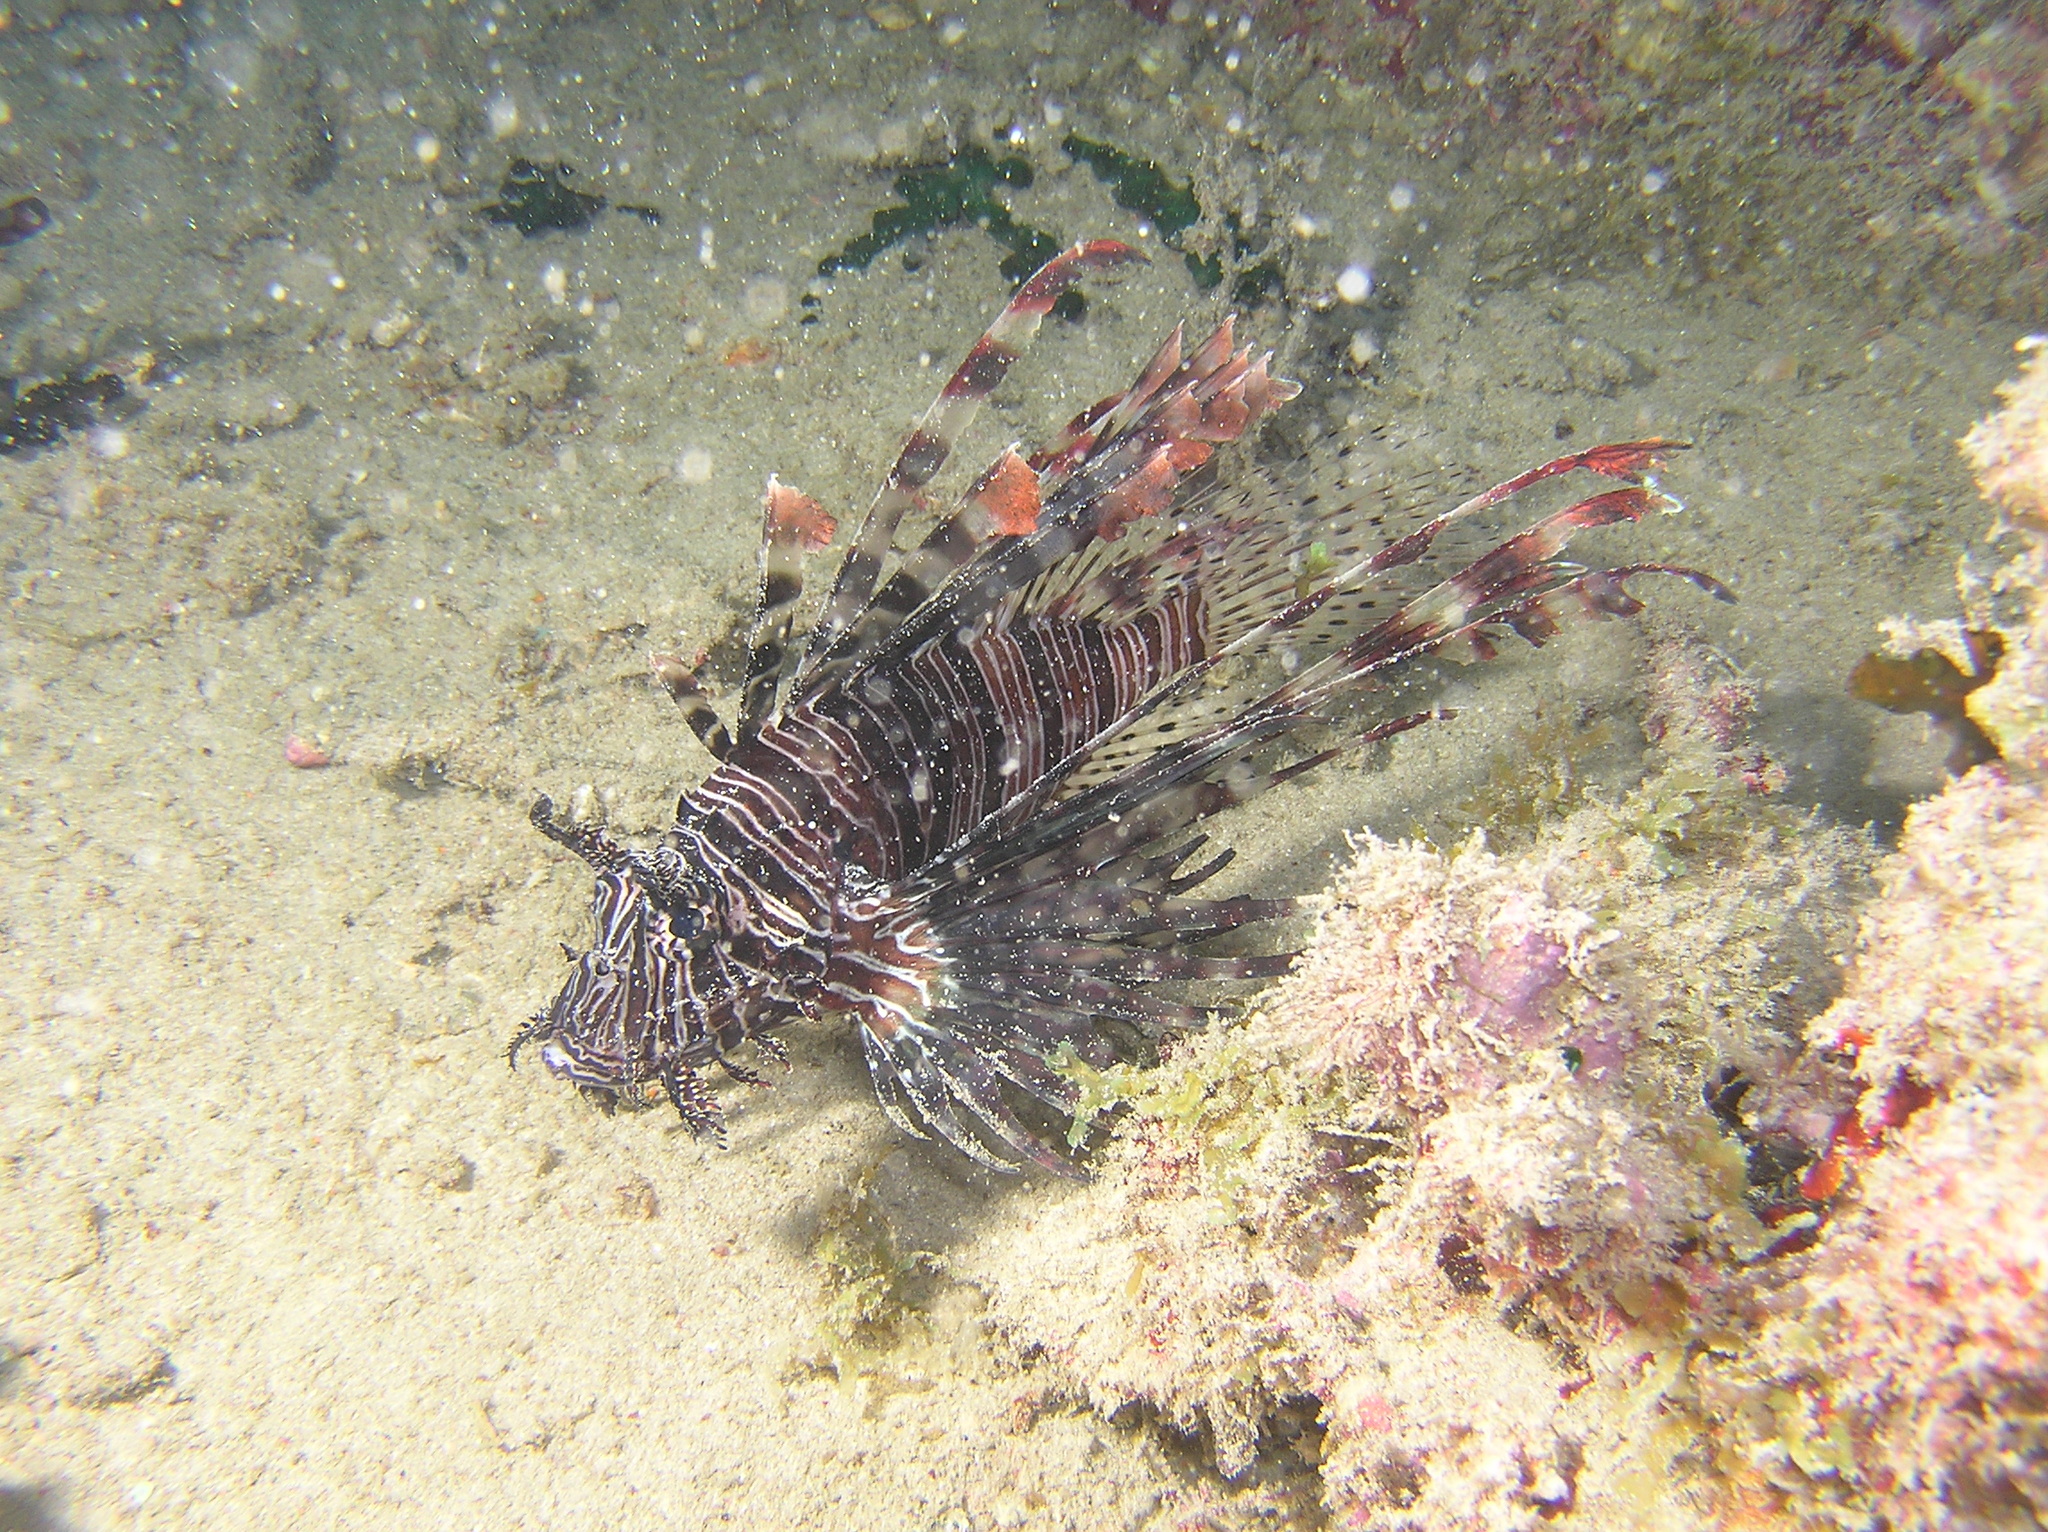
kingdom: Animalia
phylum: Chordata
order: Scorpaeniformes
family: Scorpaenidae
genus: Pterois
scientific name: Pterois volitans
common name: Lionfish
